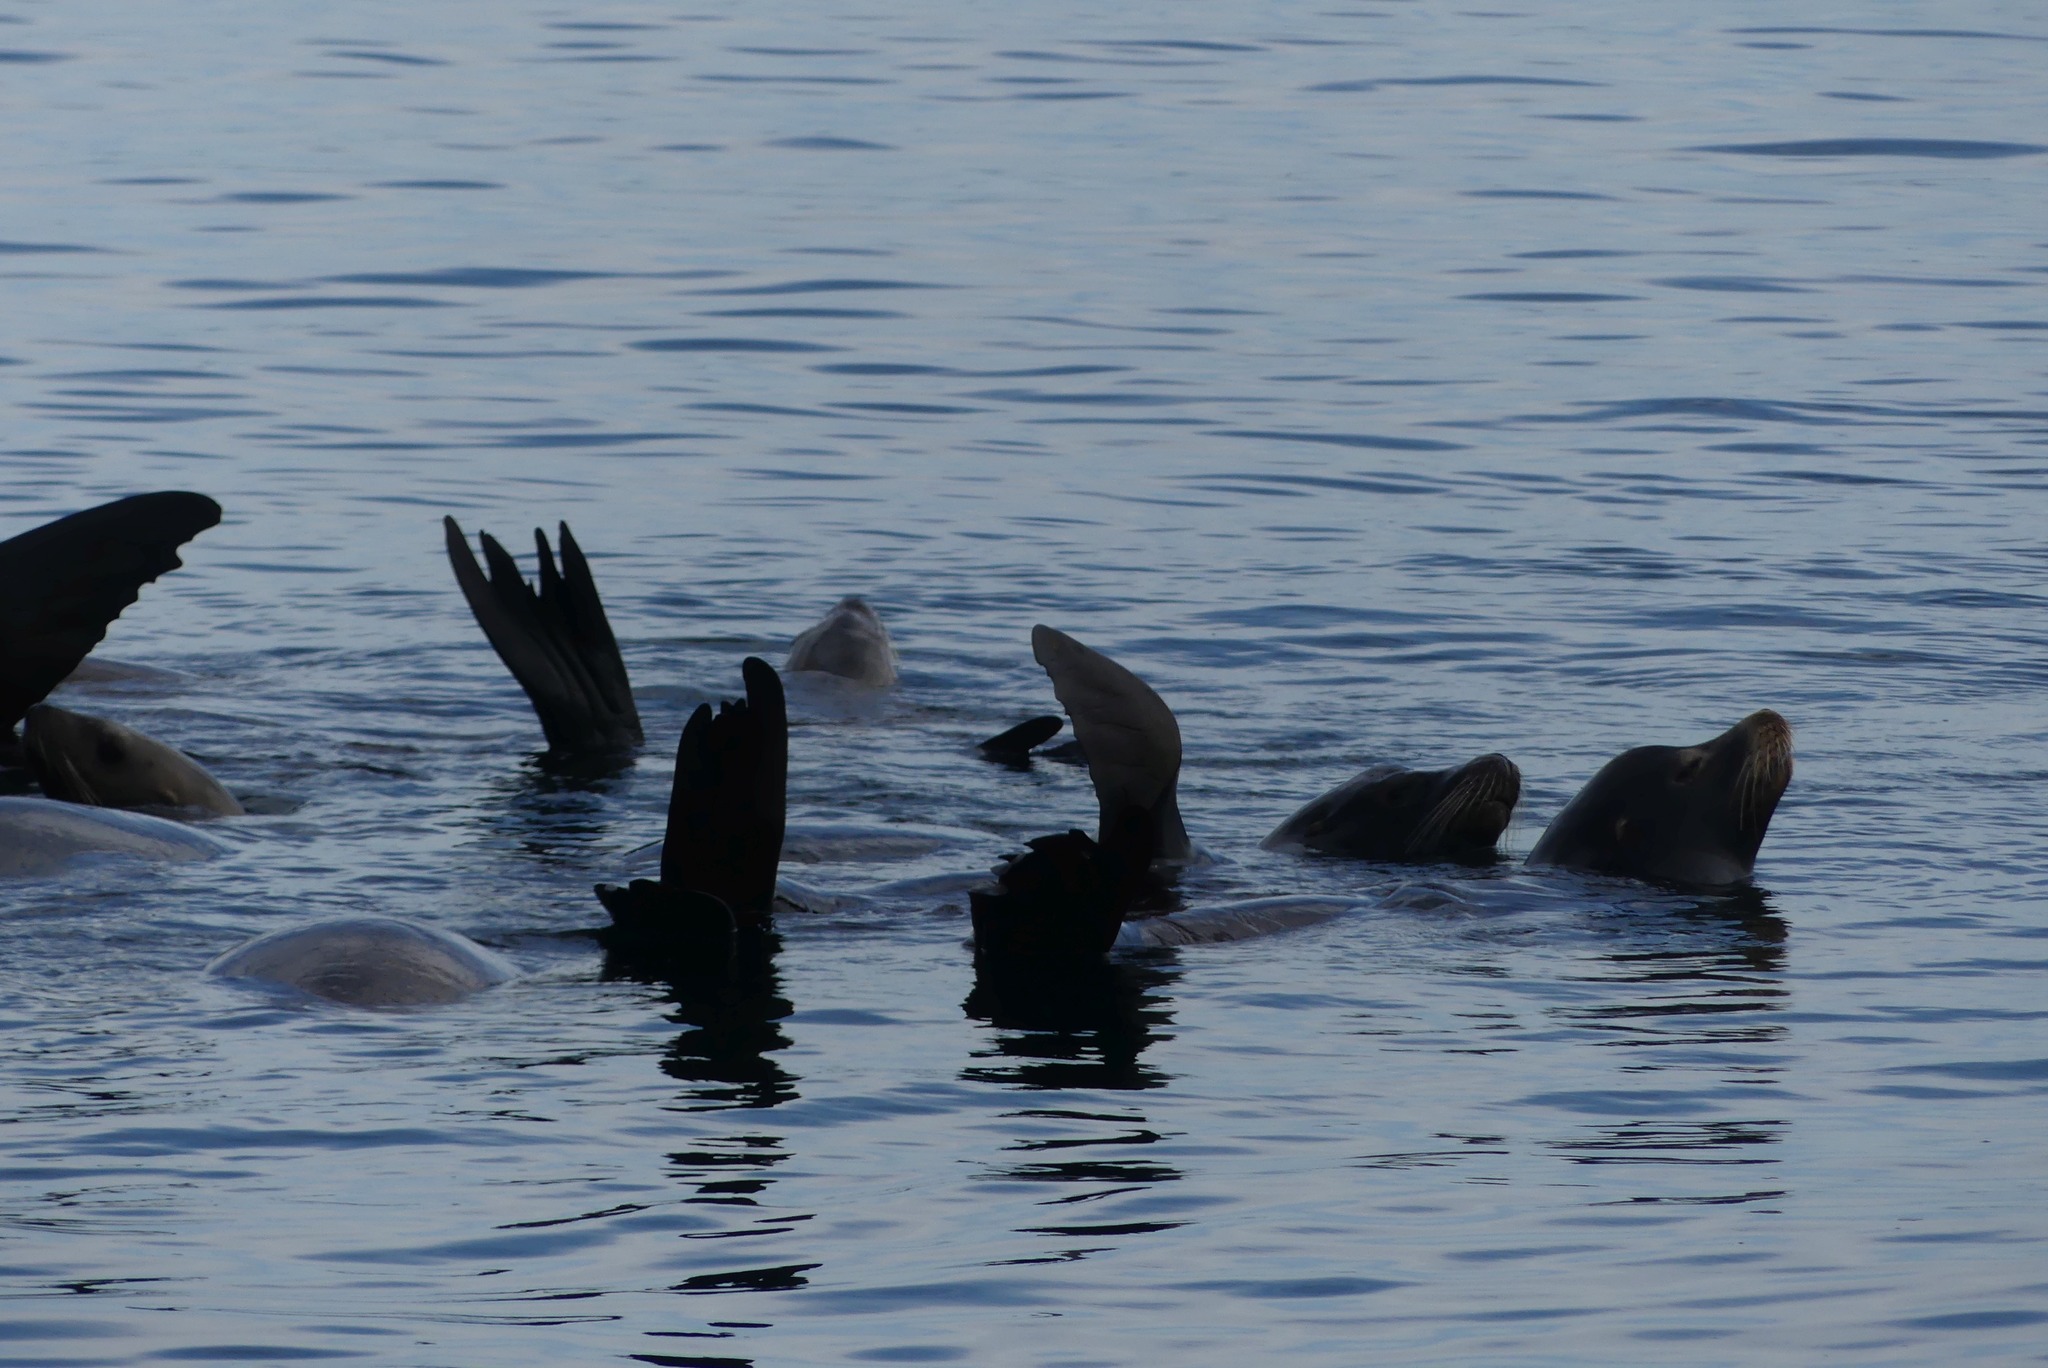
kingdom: Animalia
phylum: Chordata
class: Mammalia
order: Carnivora
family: Otariidae
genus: Zalophus
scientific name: Zalophus californianus
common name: California sea lion
